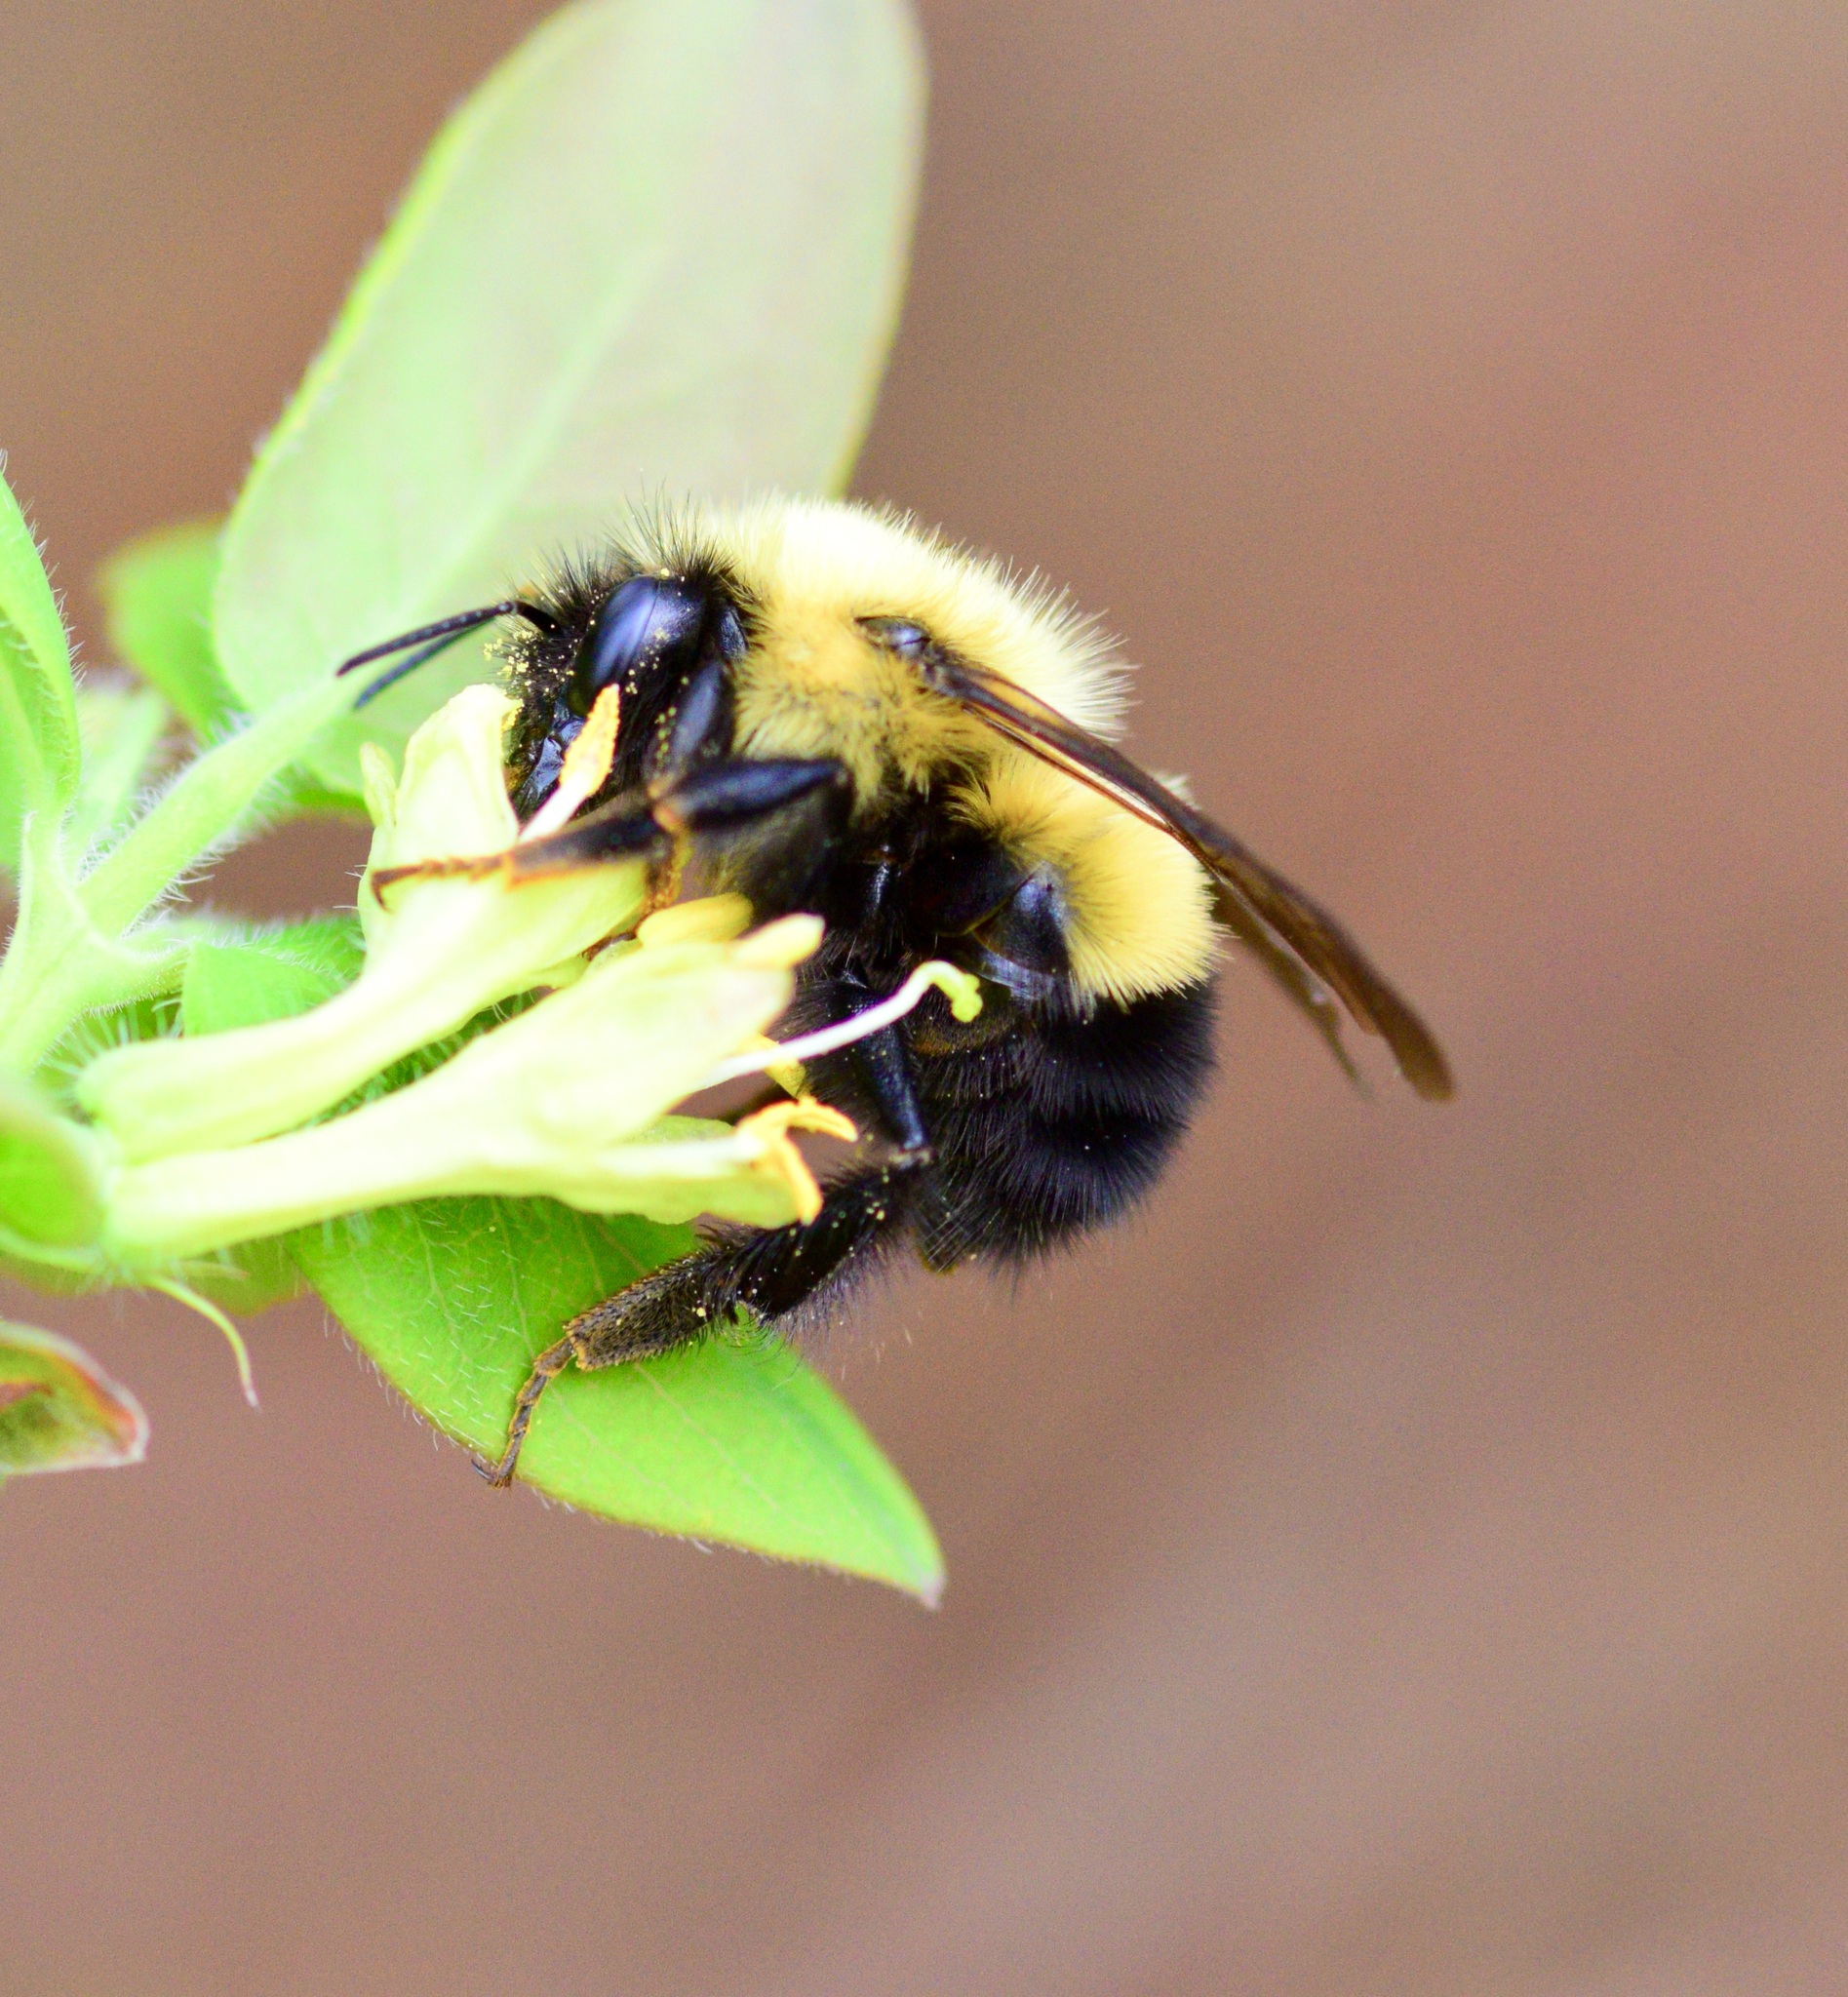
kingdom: Animalia
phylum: Arthropoda
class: Insecta
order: Hymenoptera
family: Apidae
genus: Bombus
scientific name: Bombus perplexus
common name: Confusing bumble bee
